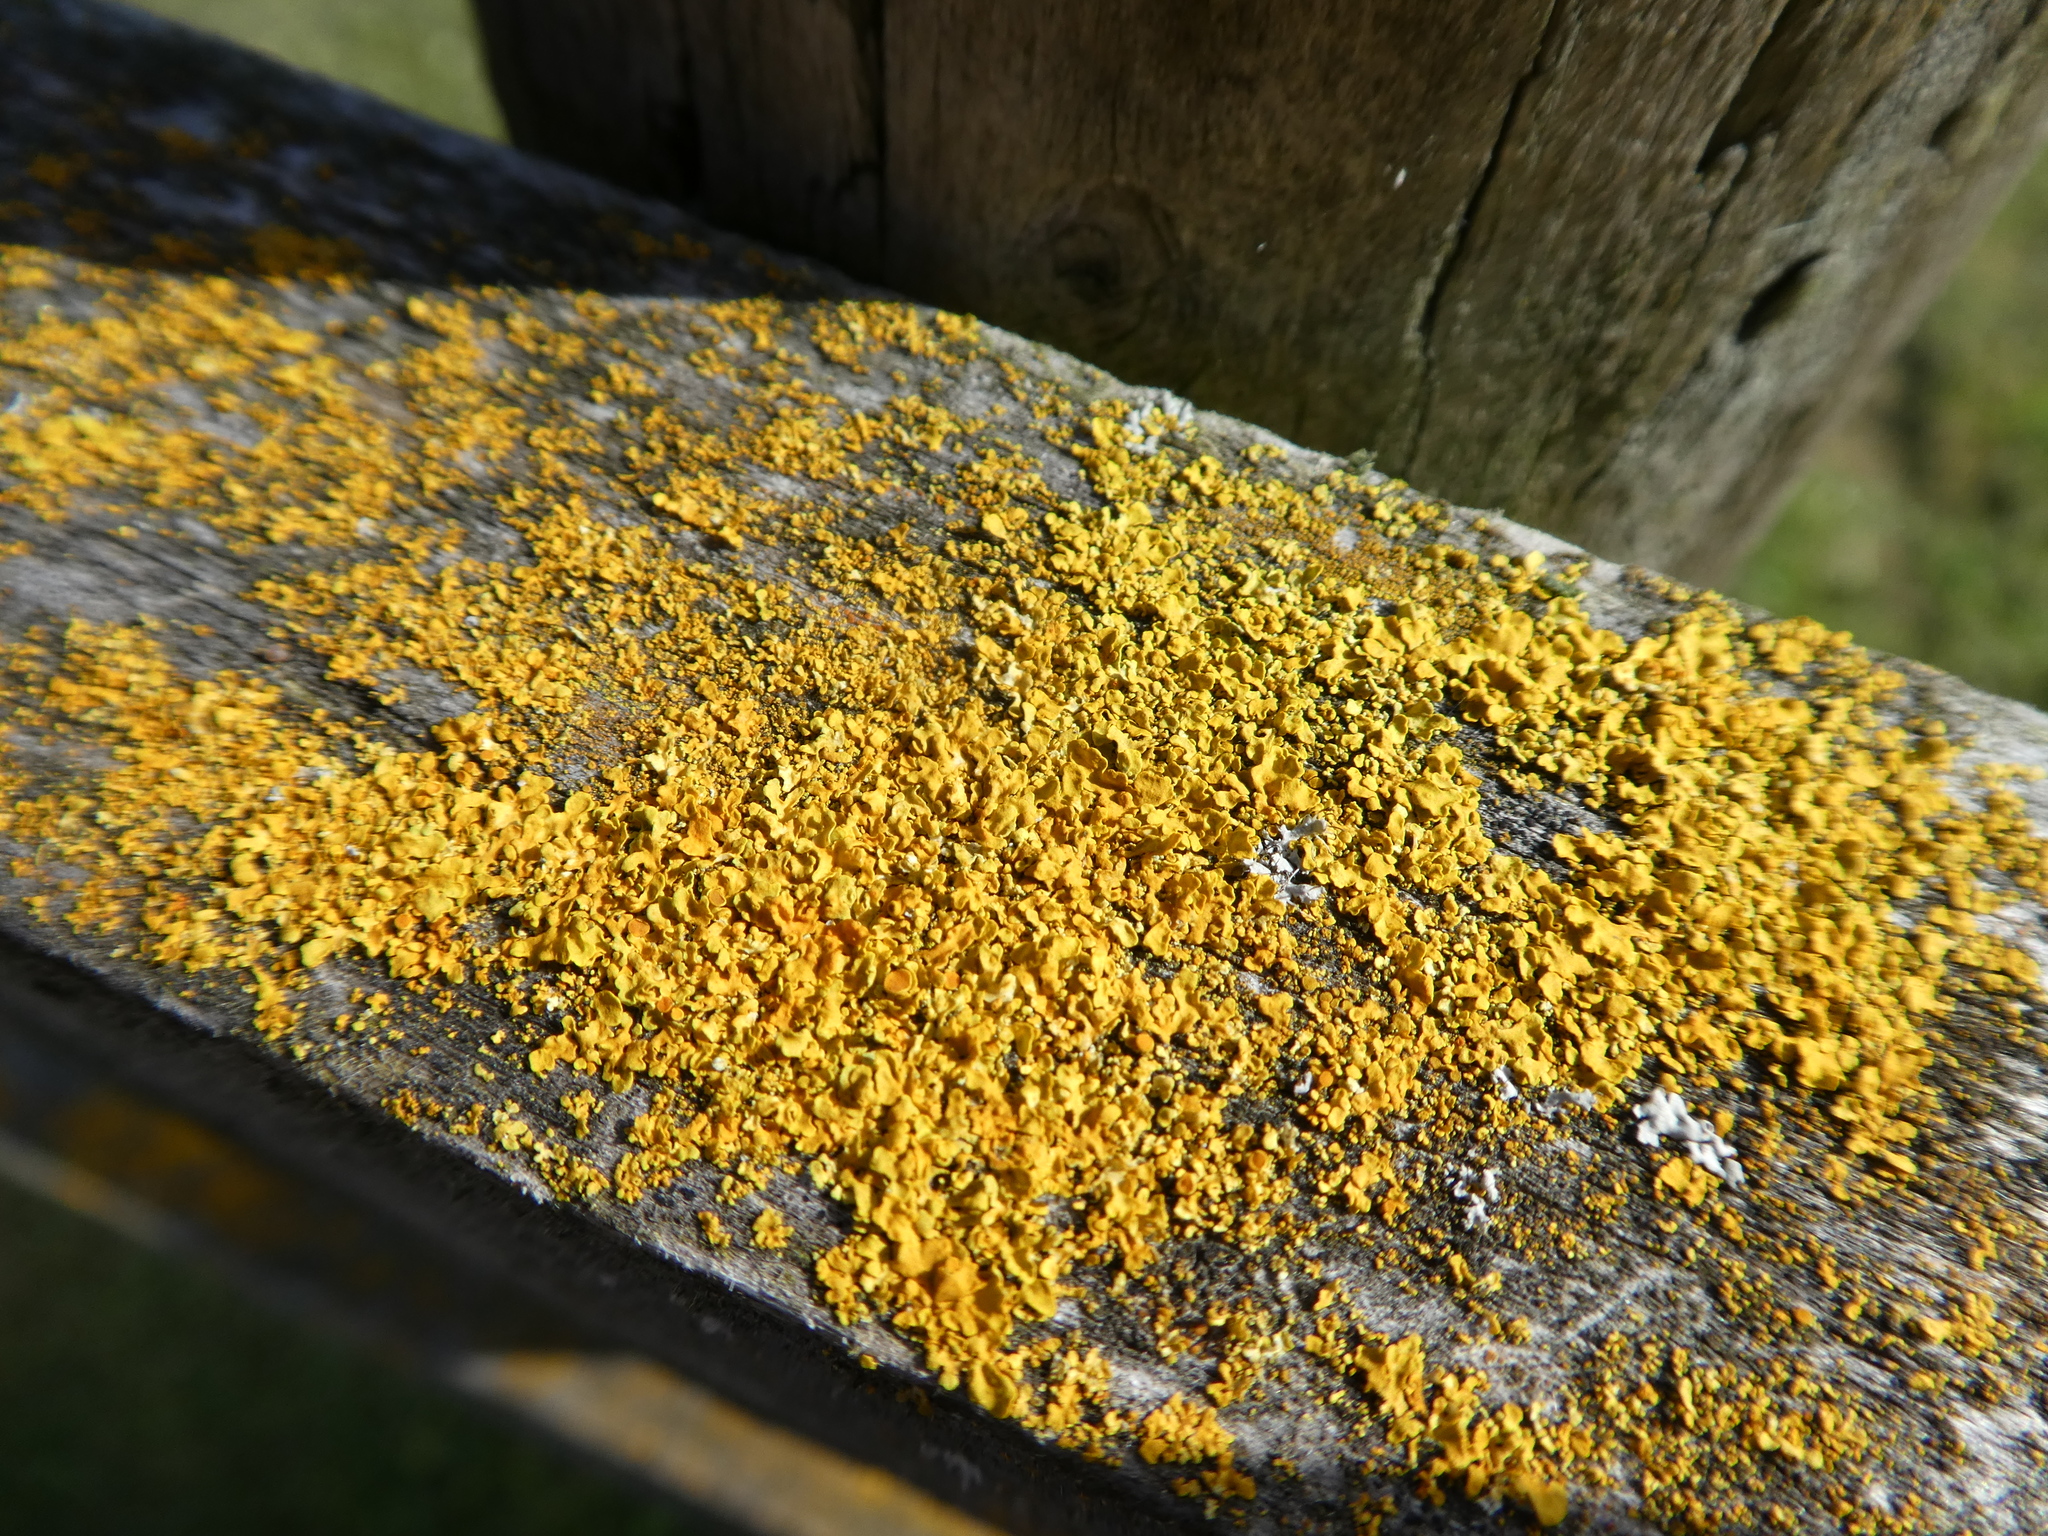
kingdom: Fungi
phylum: Ascomycota
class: Lecanoromycetes
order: Teloschistales
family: Teloschistaceae
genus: Xanthoria
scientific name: Xanthoria parietina
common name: Common orange lichen
